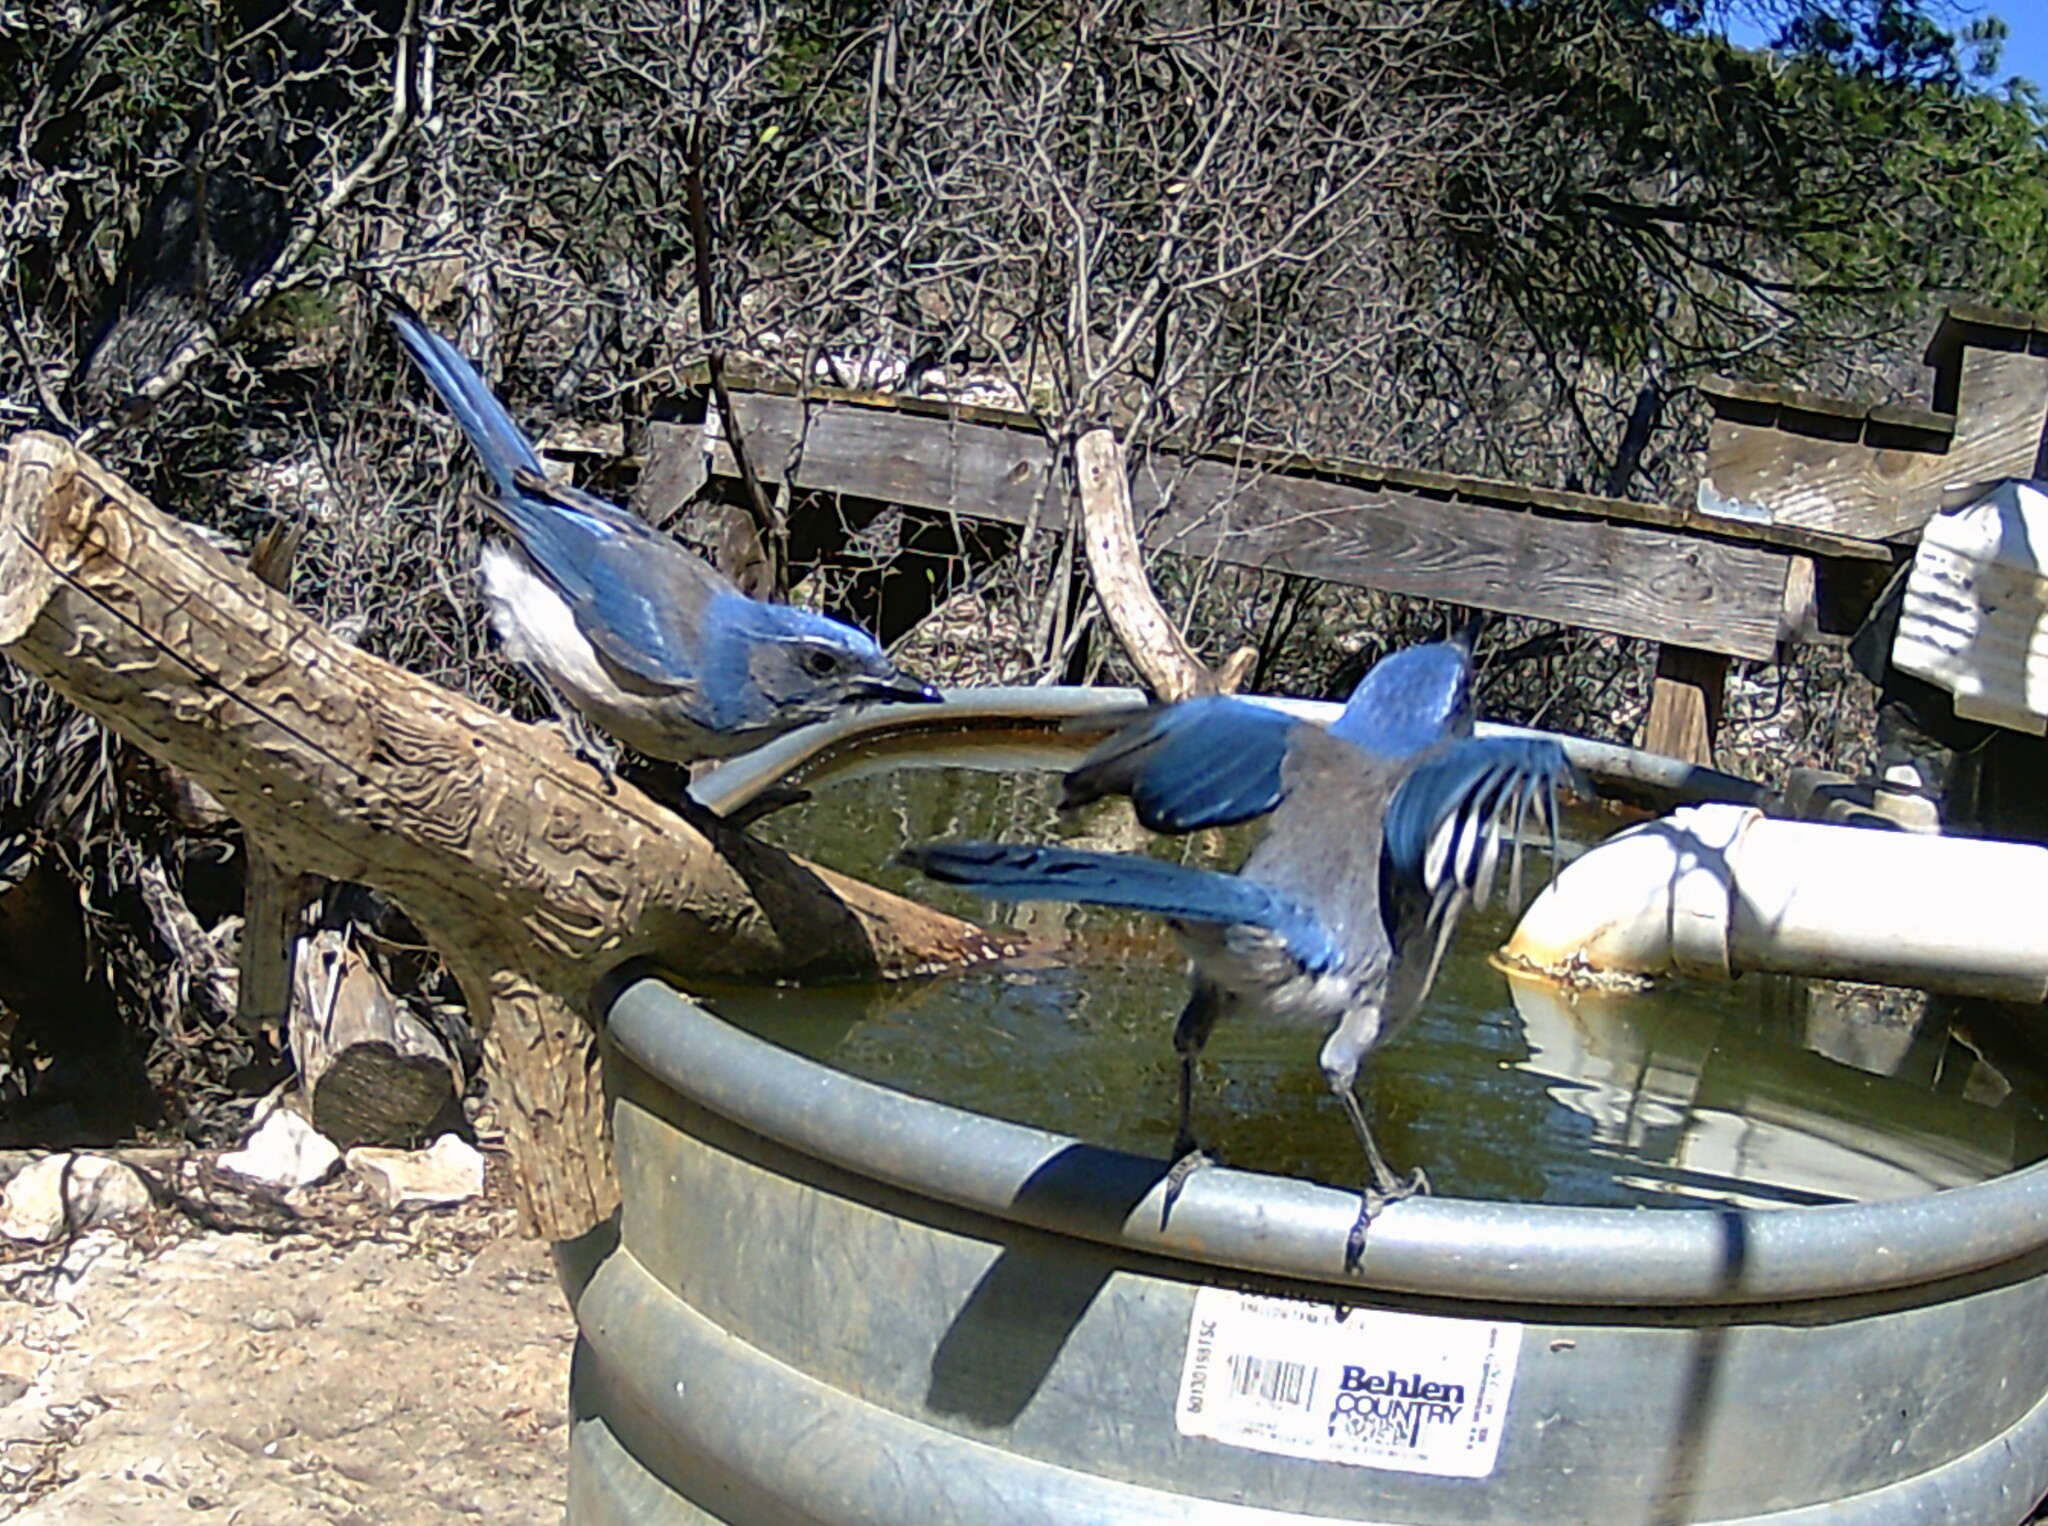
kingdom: Animalia
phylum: Chordata
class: Aves
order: Passeriformes
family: Corvidae
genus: Aphelocoma
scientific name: Aphelocoma woodhouseii
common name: Woodhouse's scrub-jay
